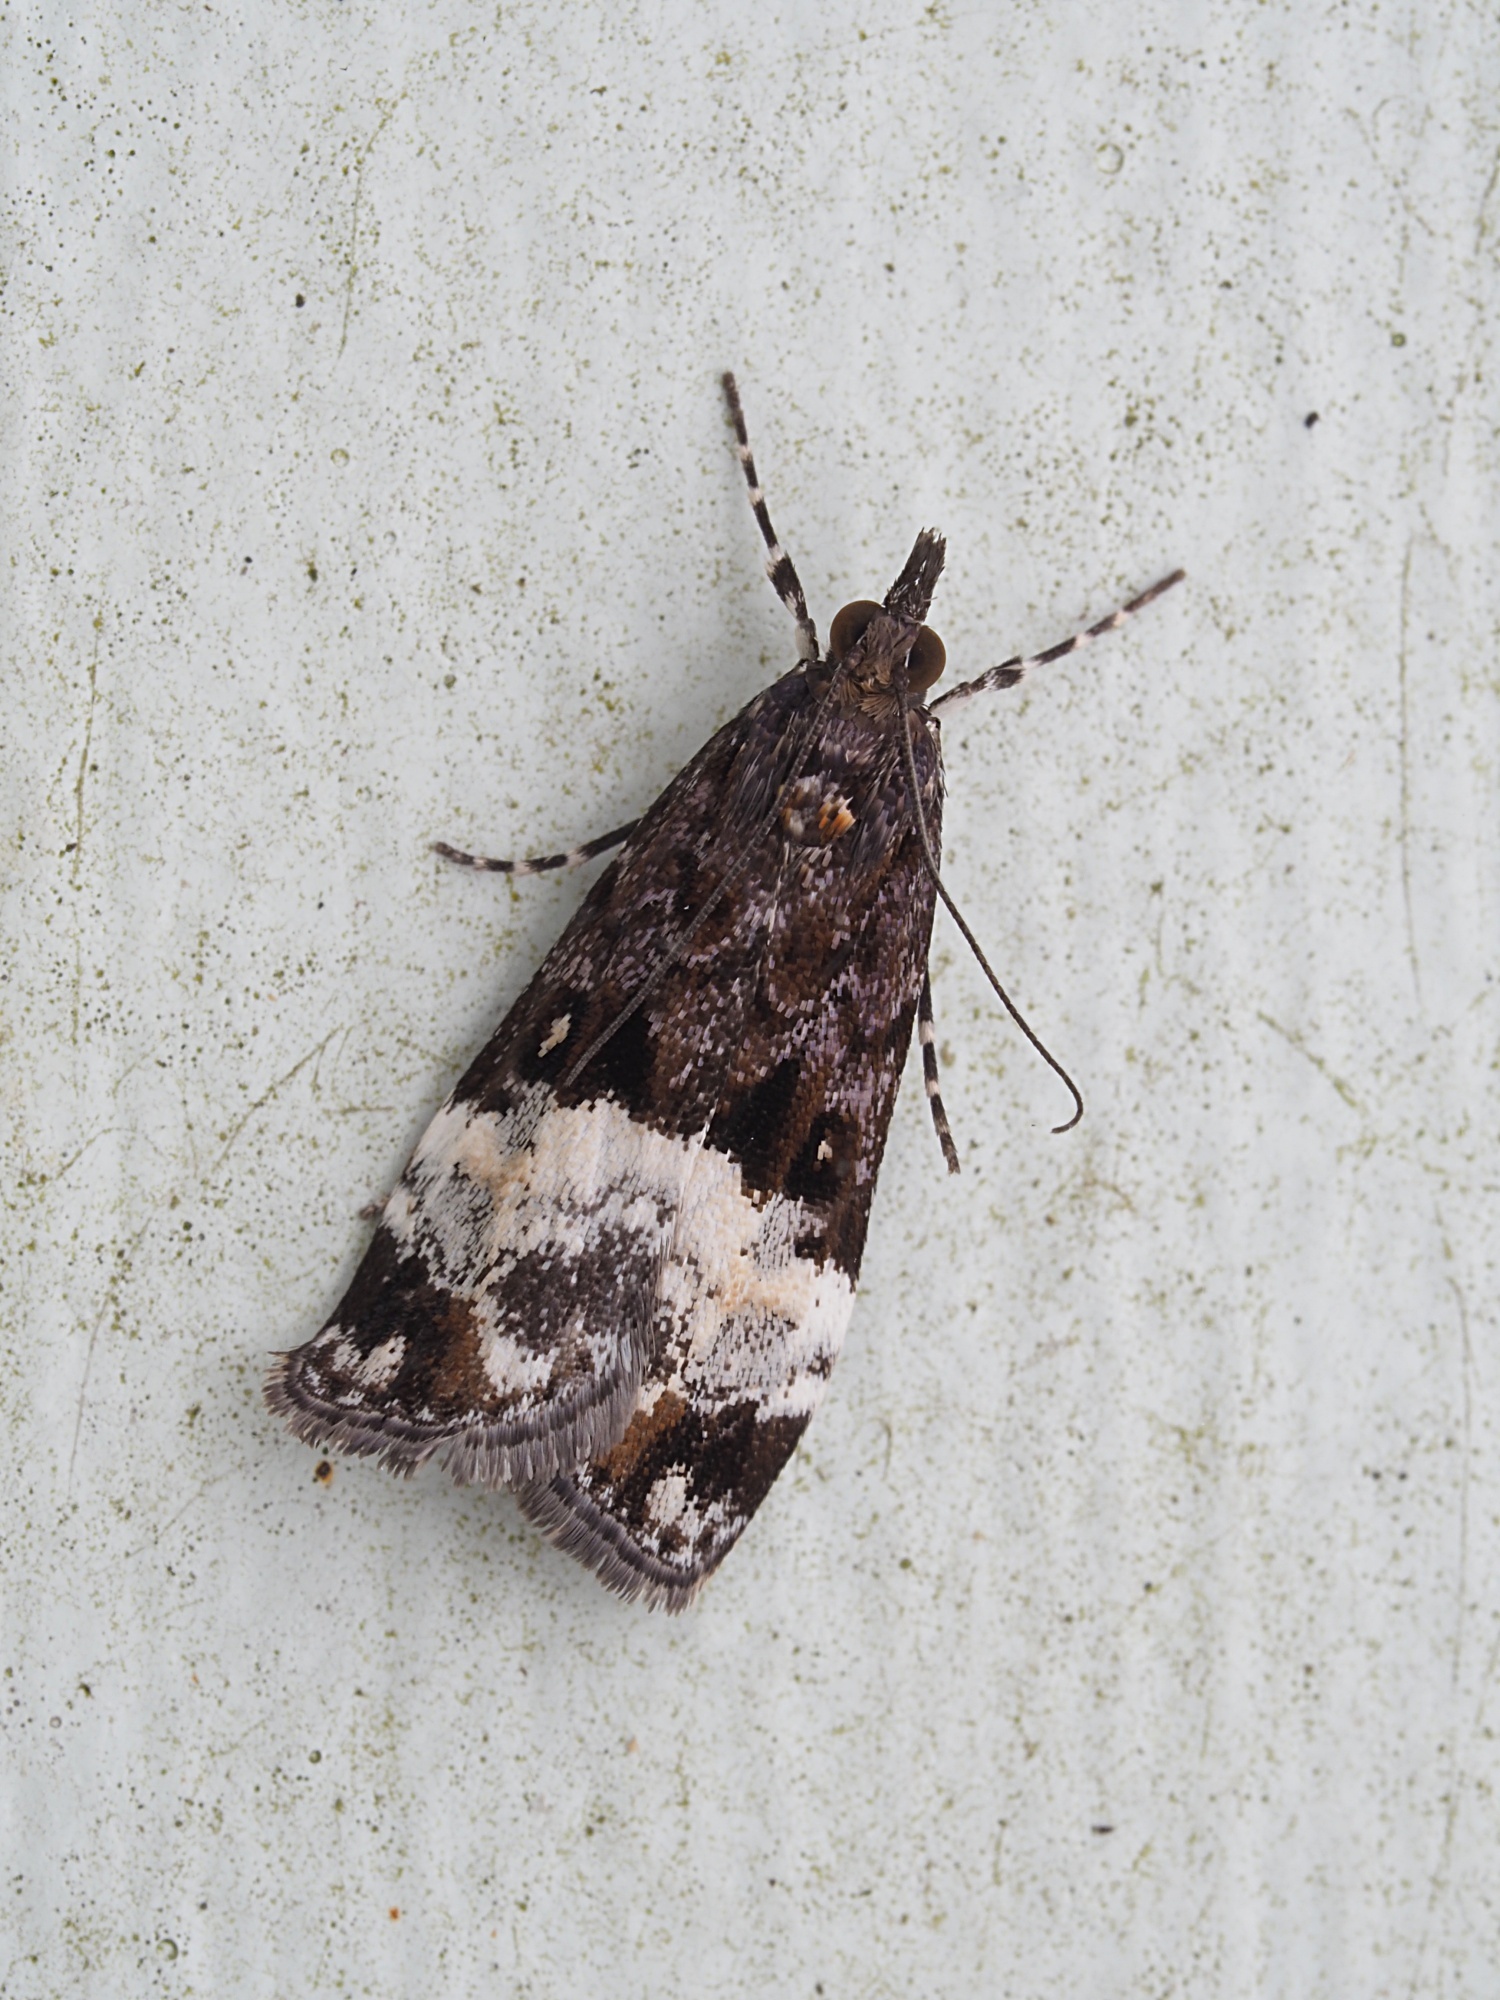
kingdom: Animalia
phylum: Arthropoda
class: Insecta
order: Lepidoptera
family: Crambidae
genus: Scoparia
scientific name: Scoparia minusculalis
